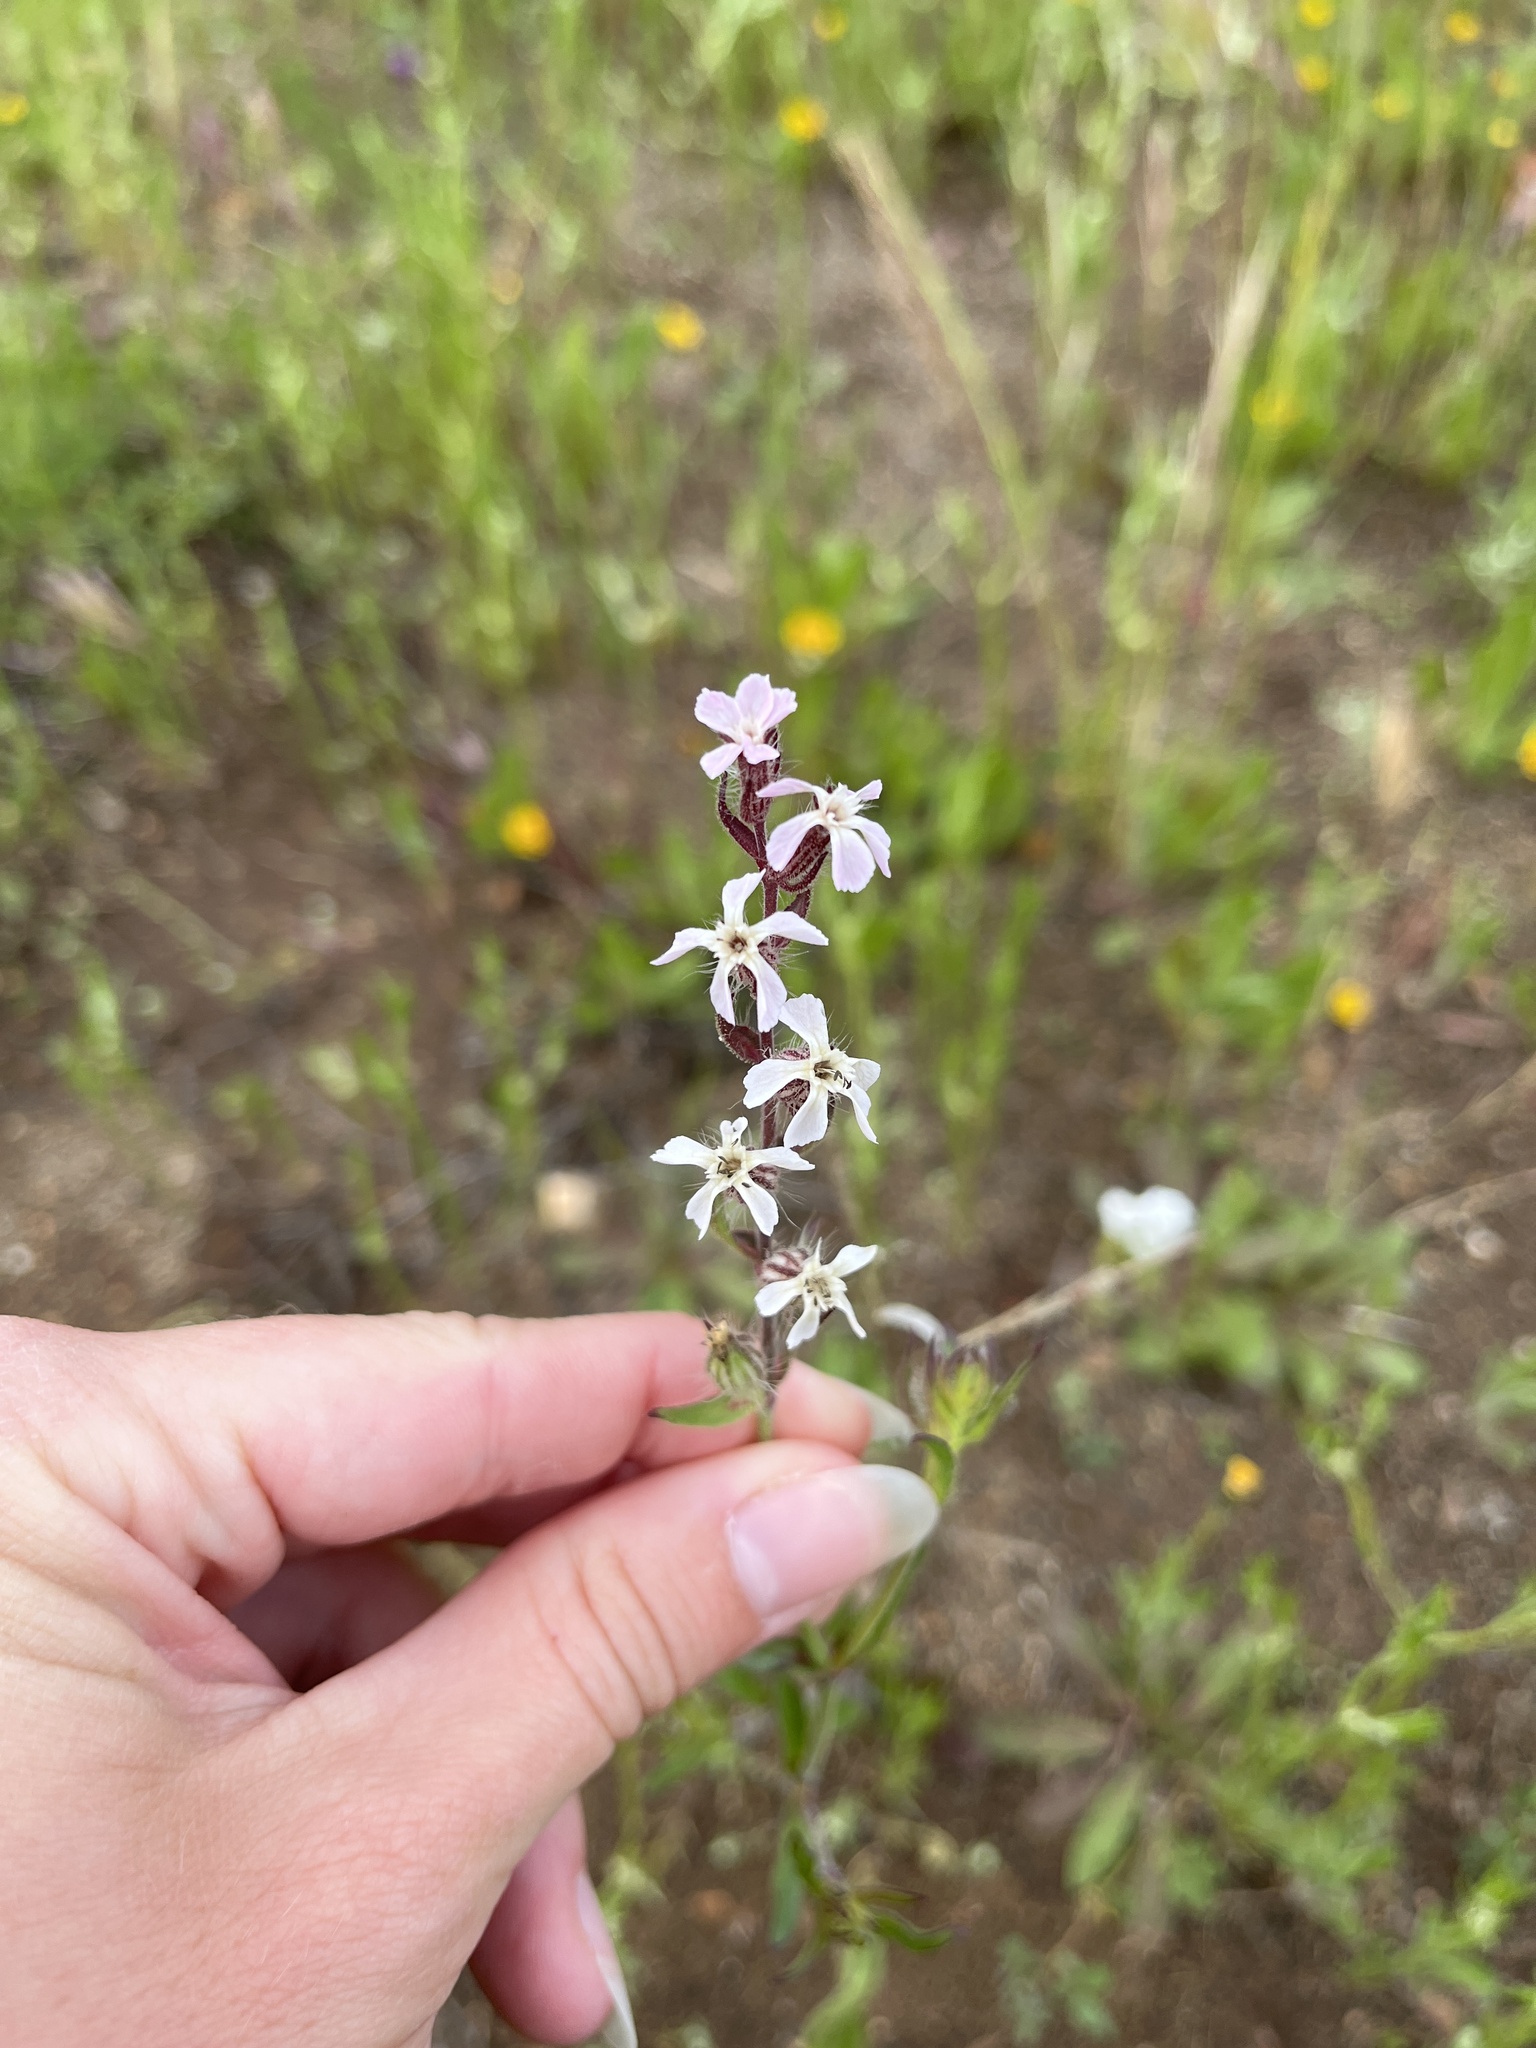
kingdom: Plantae
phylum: Tracheophyta
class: Magnoliopsida
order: Caryophyllales
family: Caryophyllaceae
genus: Silene
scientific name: Silene gallica
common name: Small-flowered catchfly
